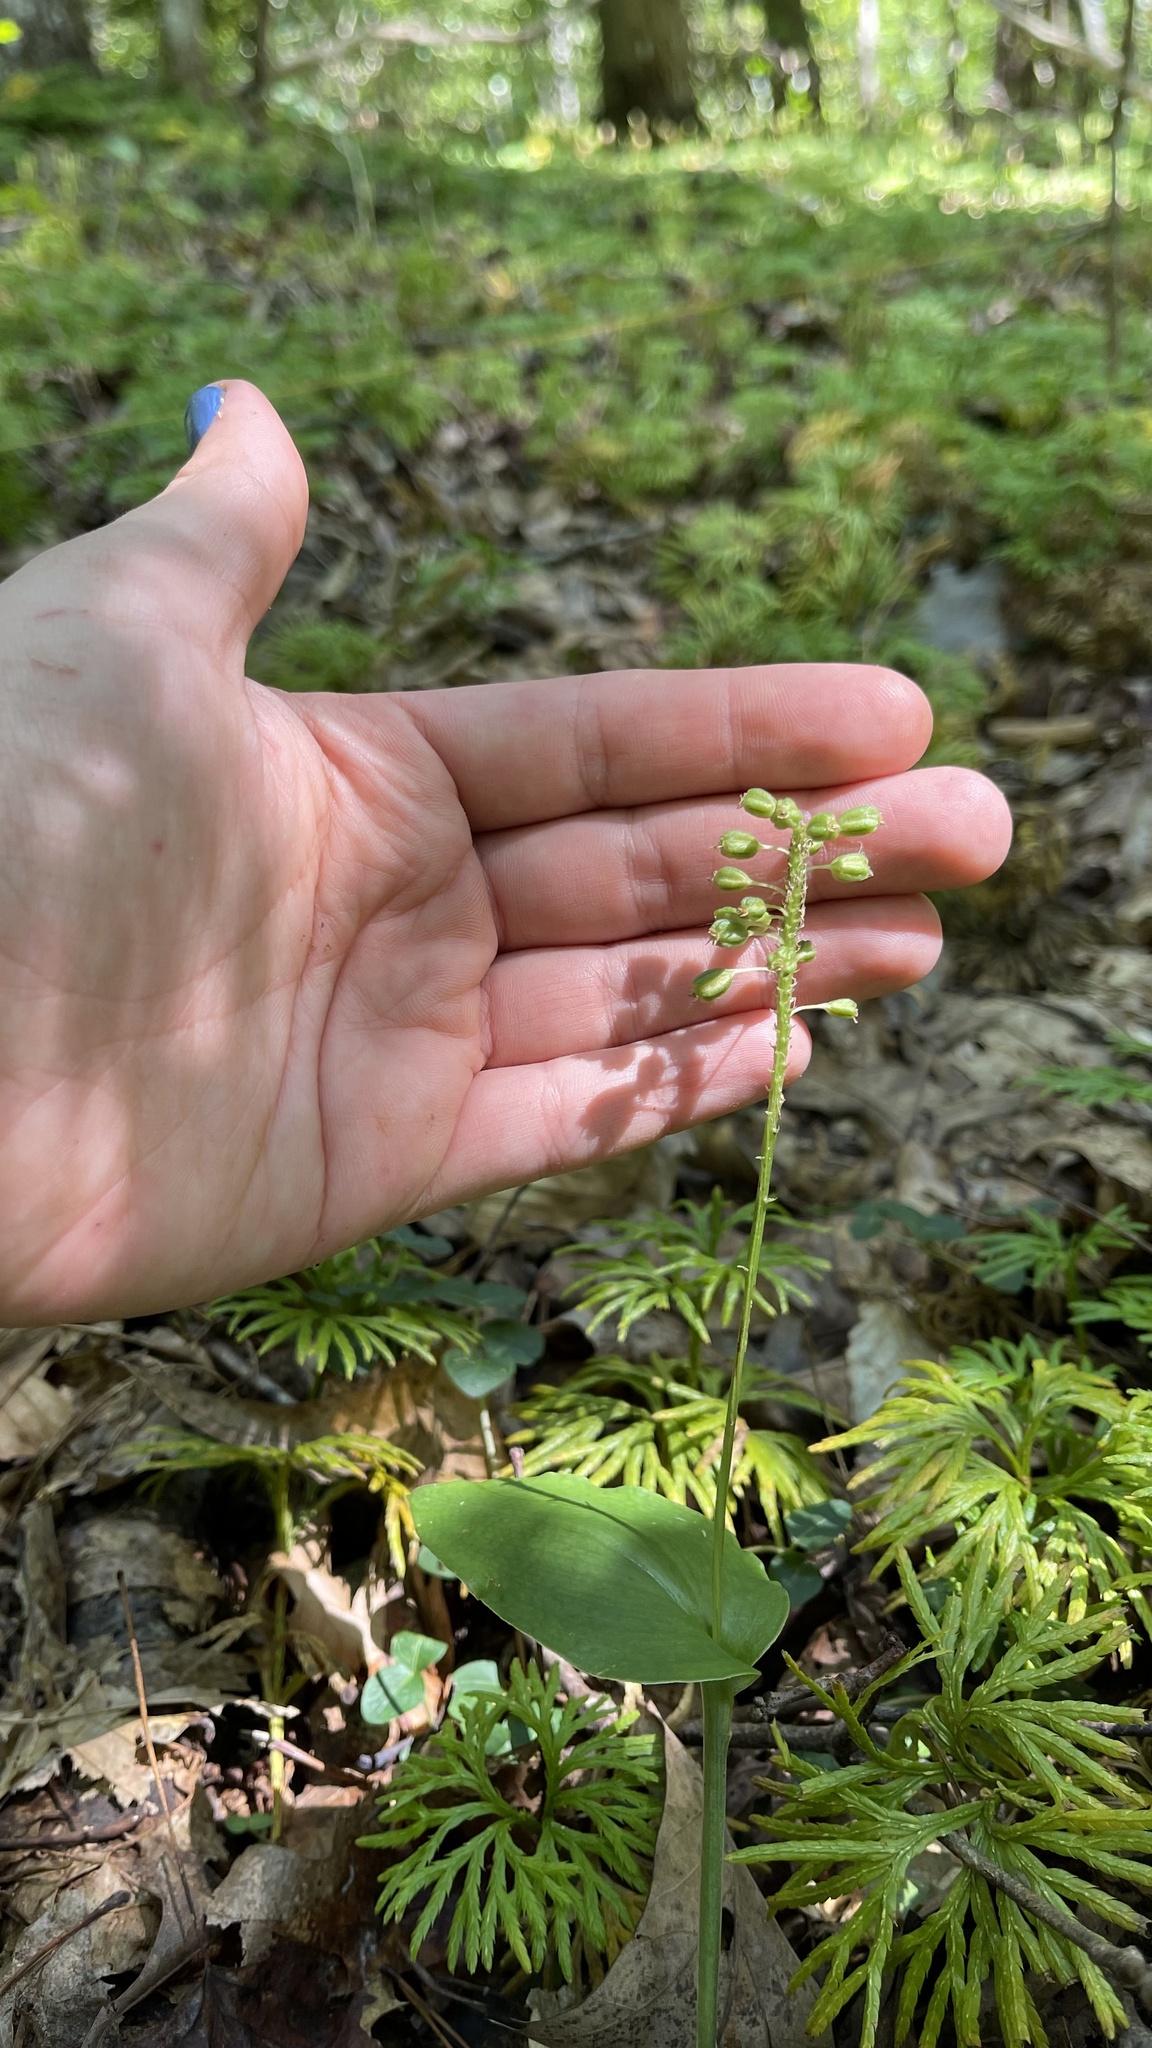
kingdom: Plantae
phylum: Tracheophyta
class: Liliopsida
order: Asparagales
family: Orchidaceae
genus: Malaxis
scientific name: Malaxis unifolia
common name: Green adder's-mouth
